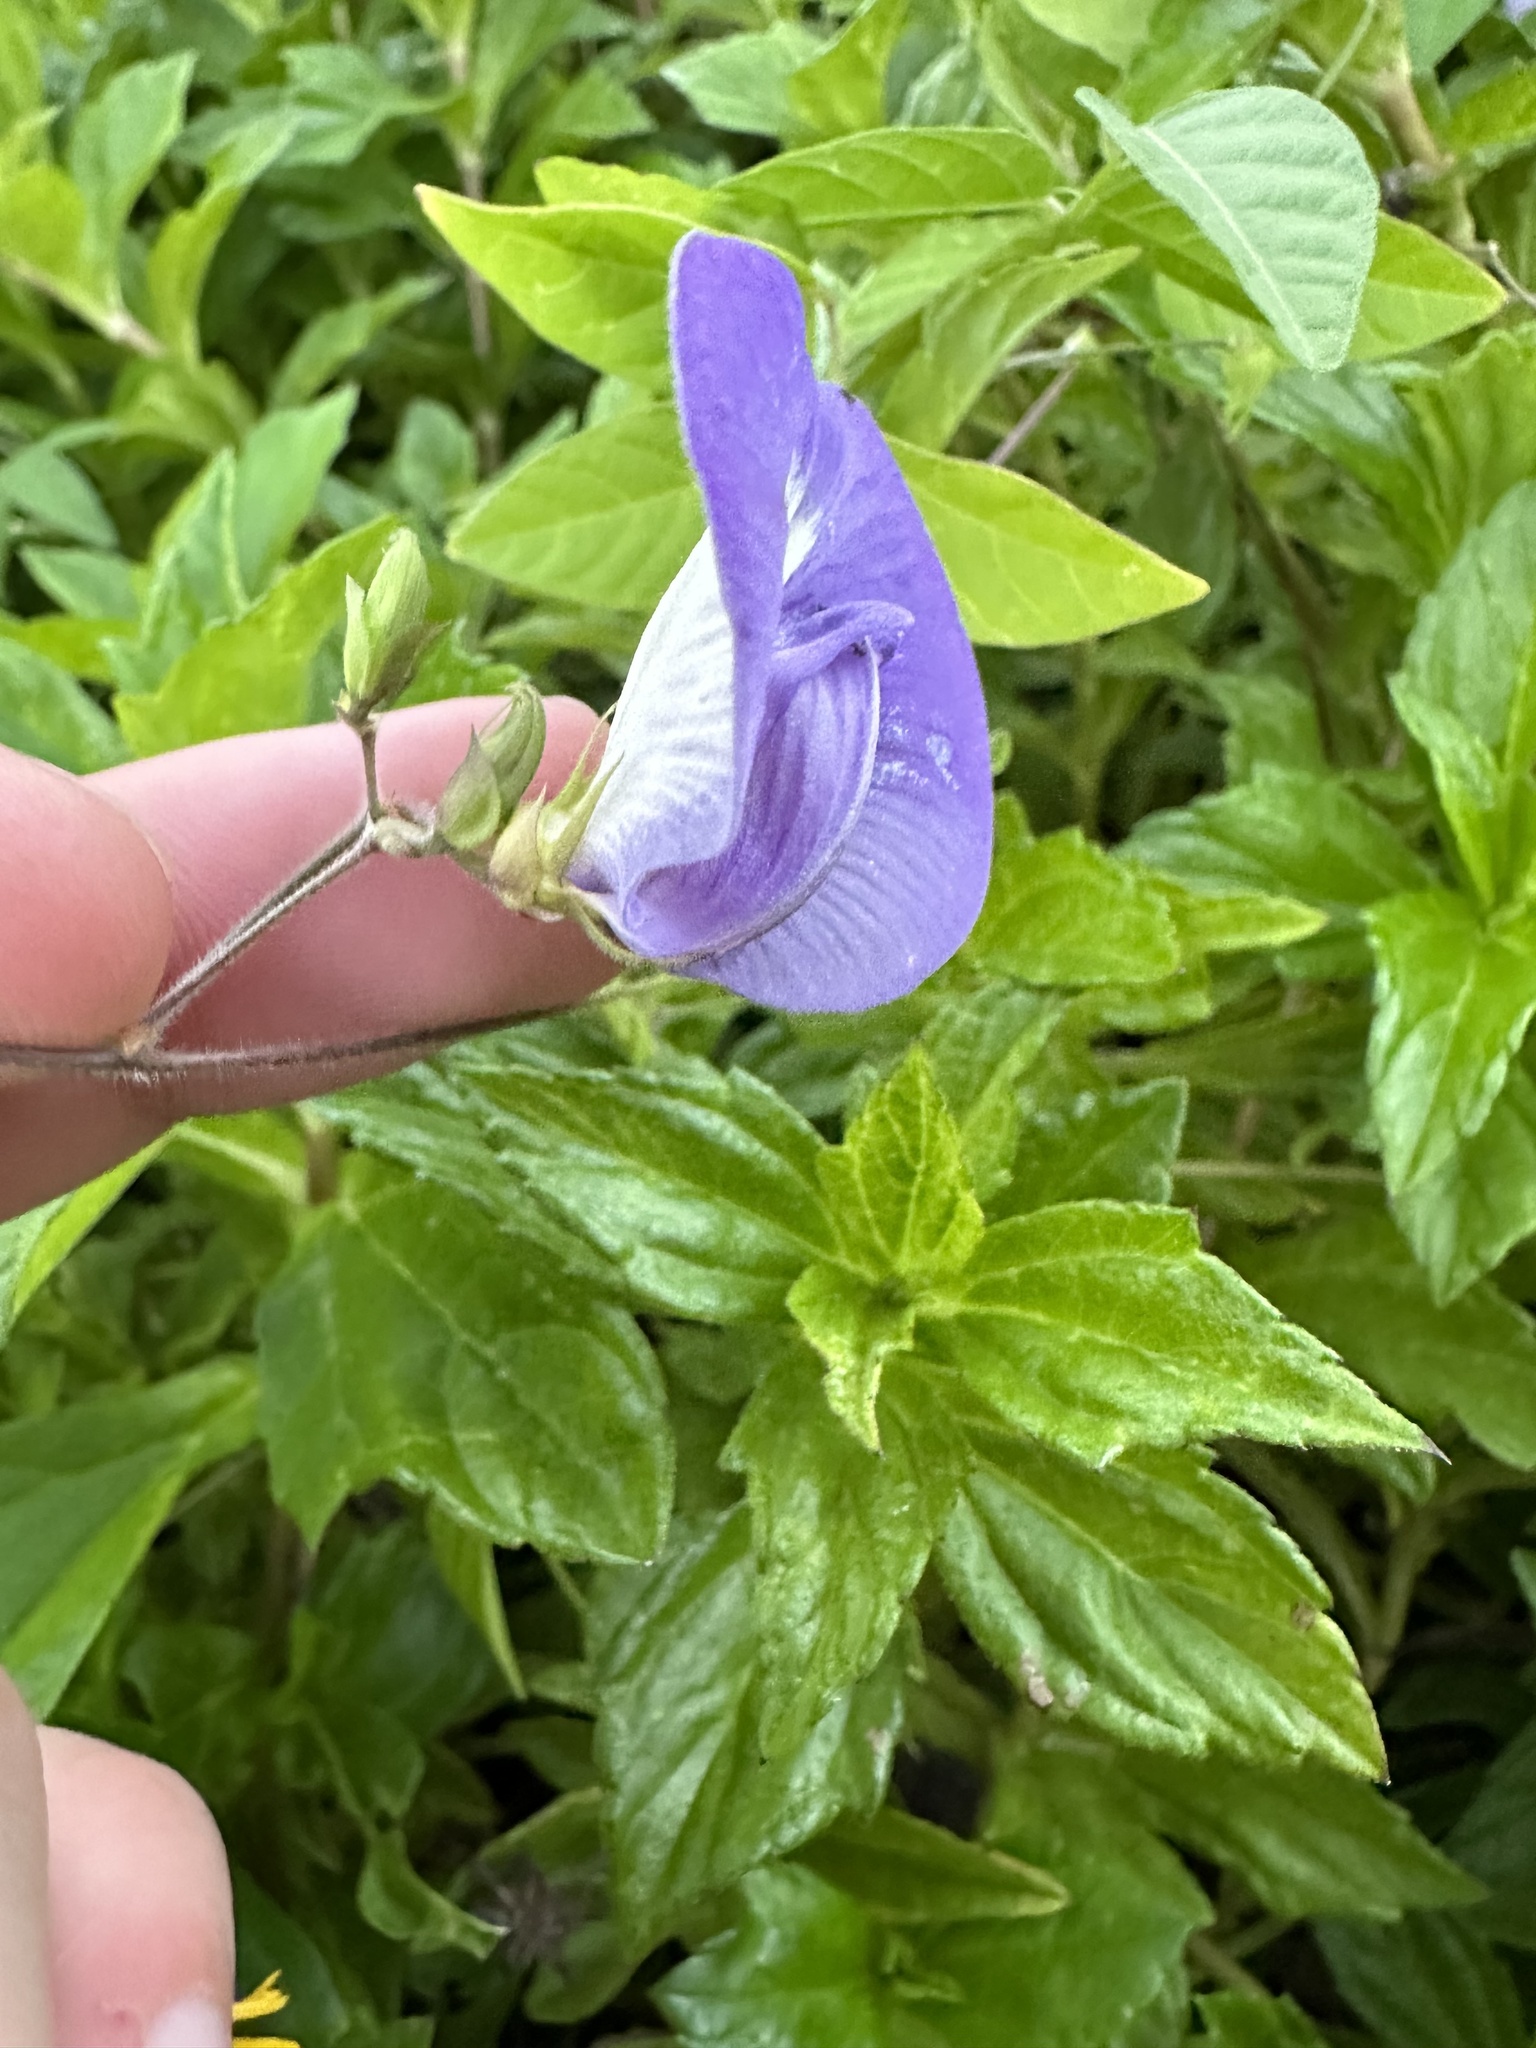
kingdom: Plantae
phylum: Tracheophyta
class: Magnoliopsida
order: Fabales
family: Fabaceae
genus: Centrosema
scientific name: Centrosema virginianum
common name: Butterfly-pea
